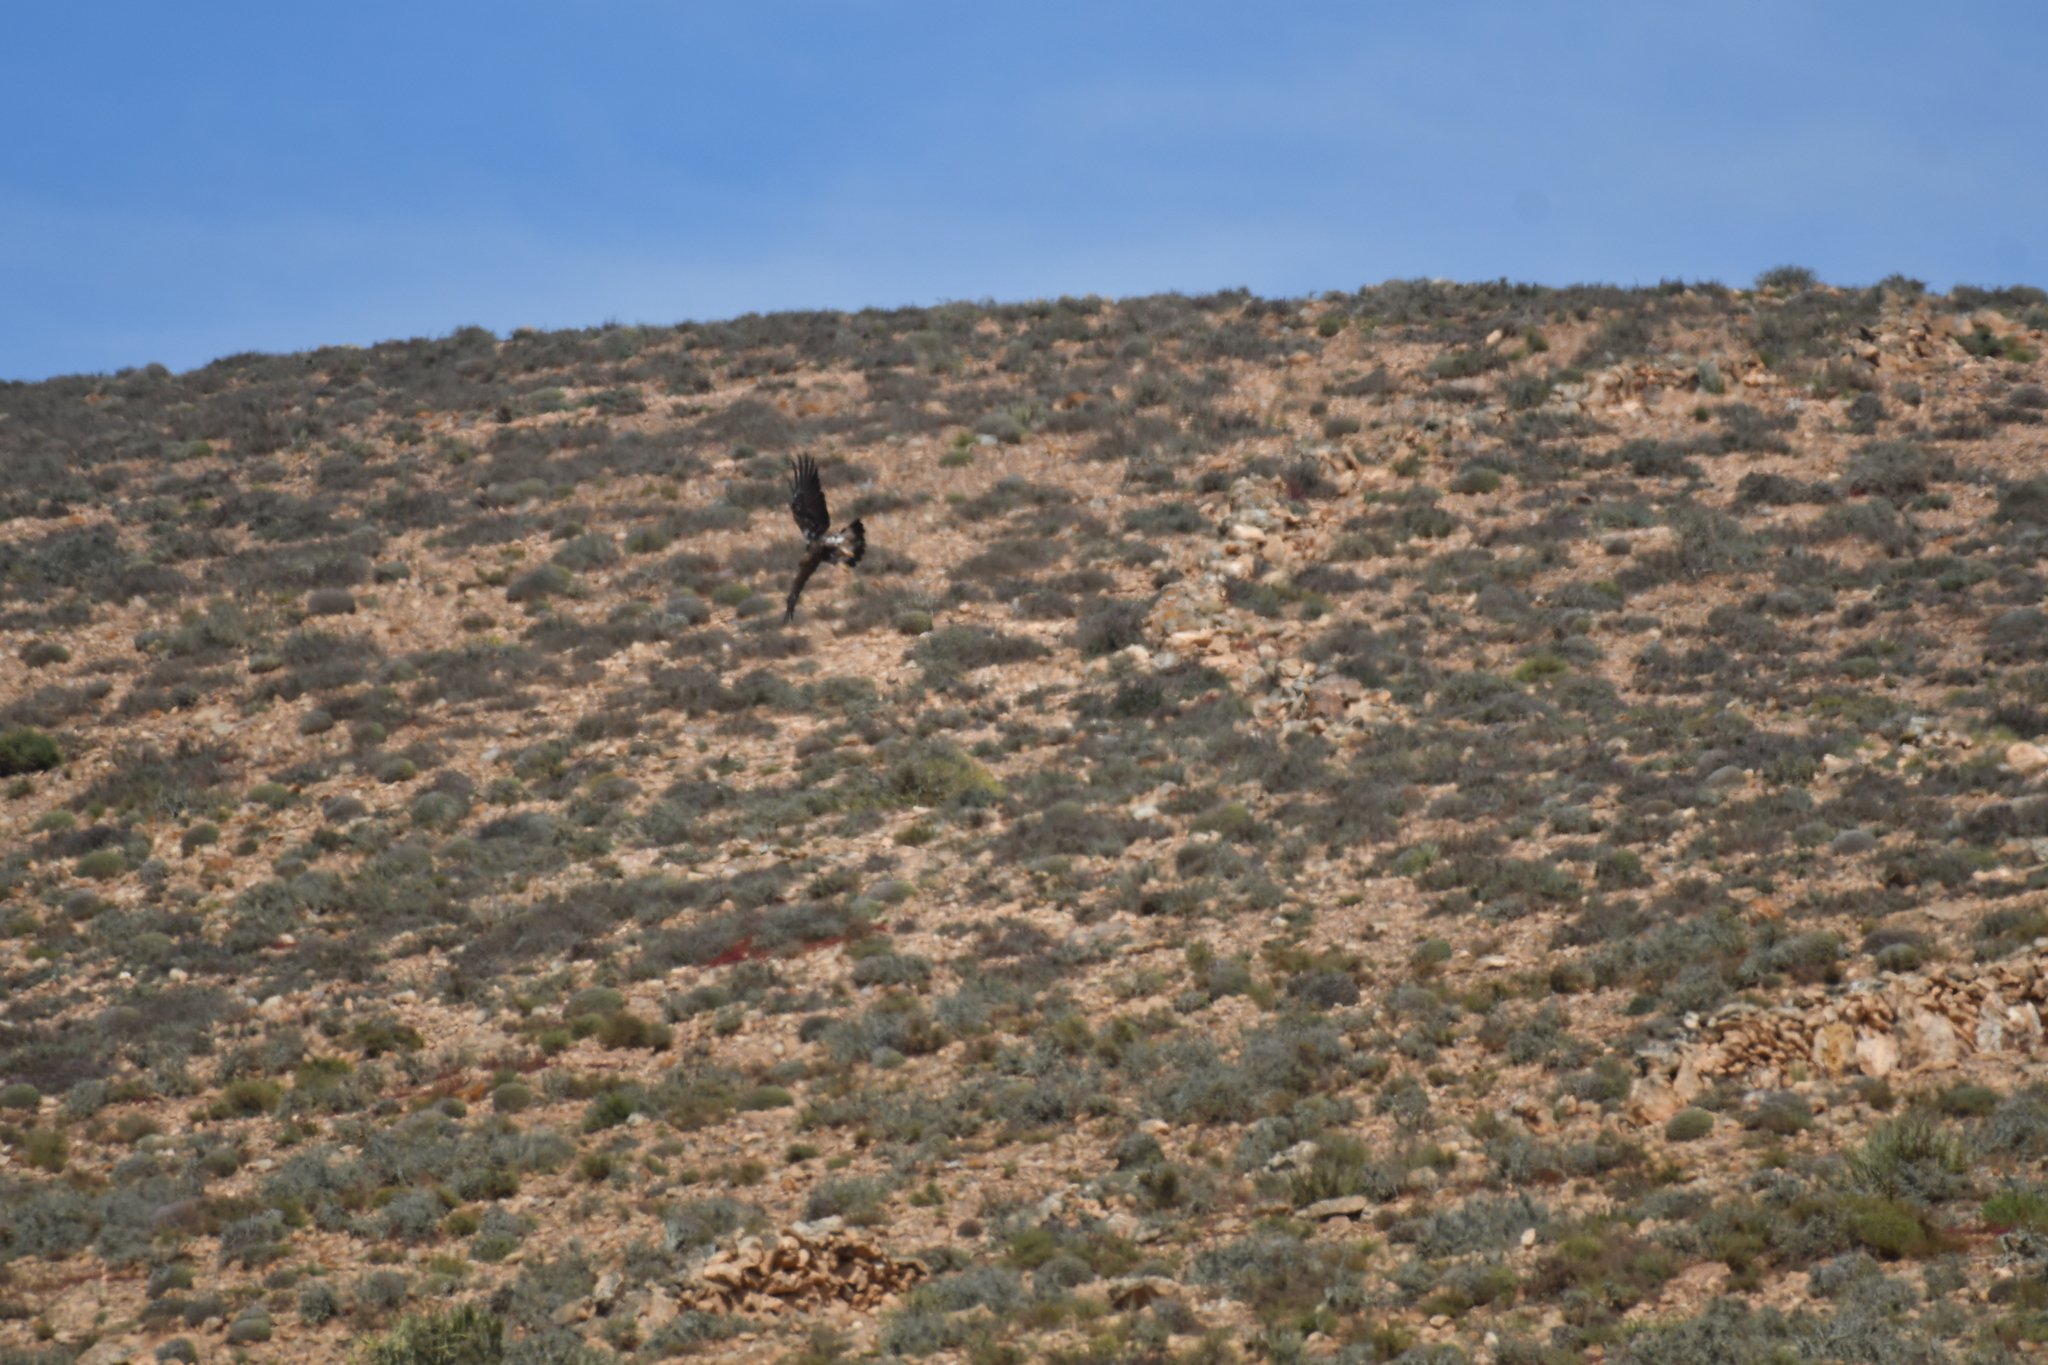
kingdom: Animalia
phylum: Chordata
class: Aves
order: Accipitriformes
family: Accipitridae
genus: Aquila
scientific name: Aquila chrysaetos
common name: Golden eagle
